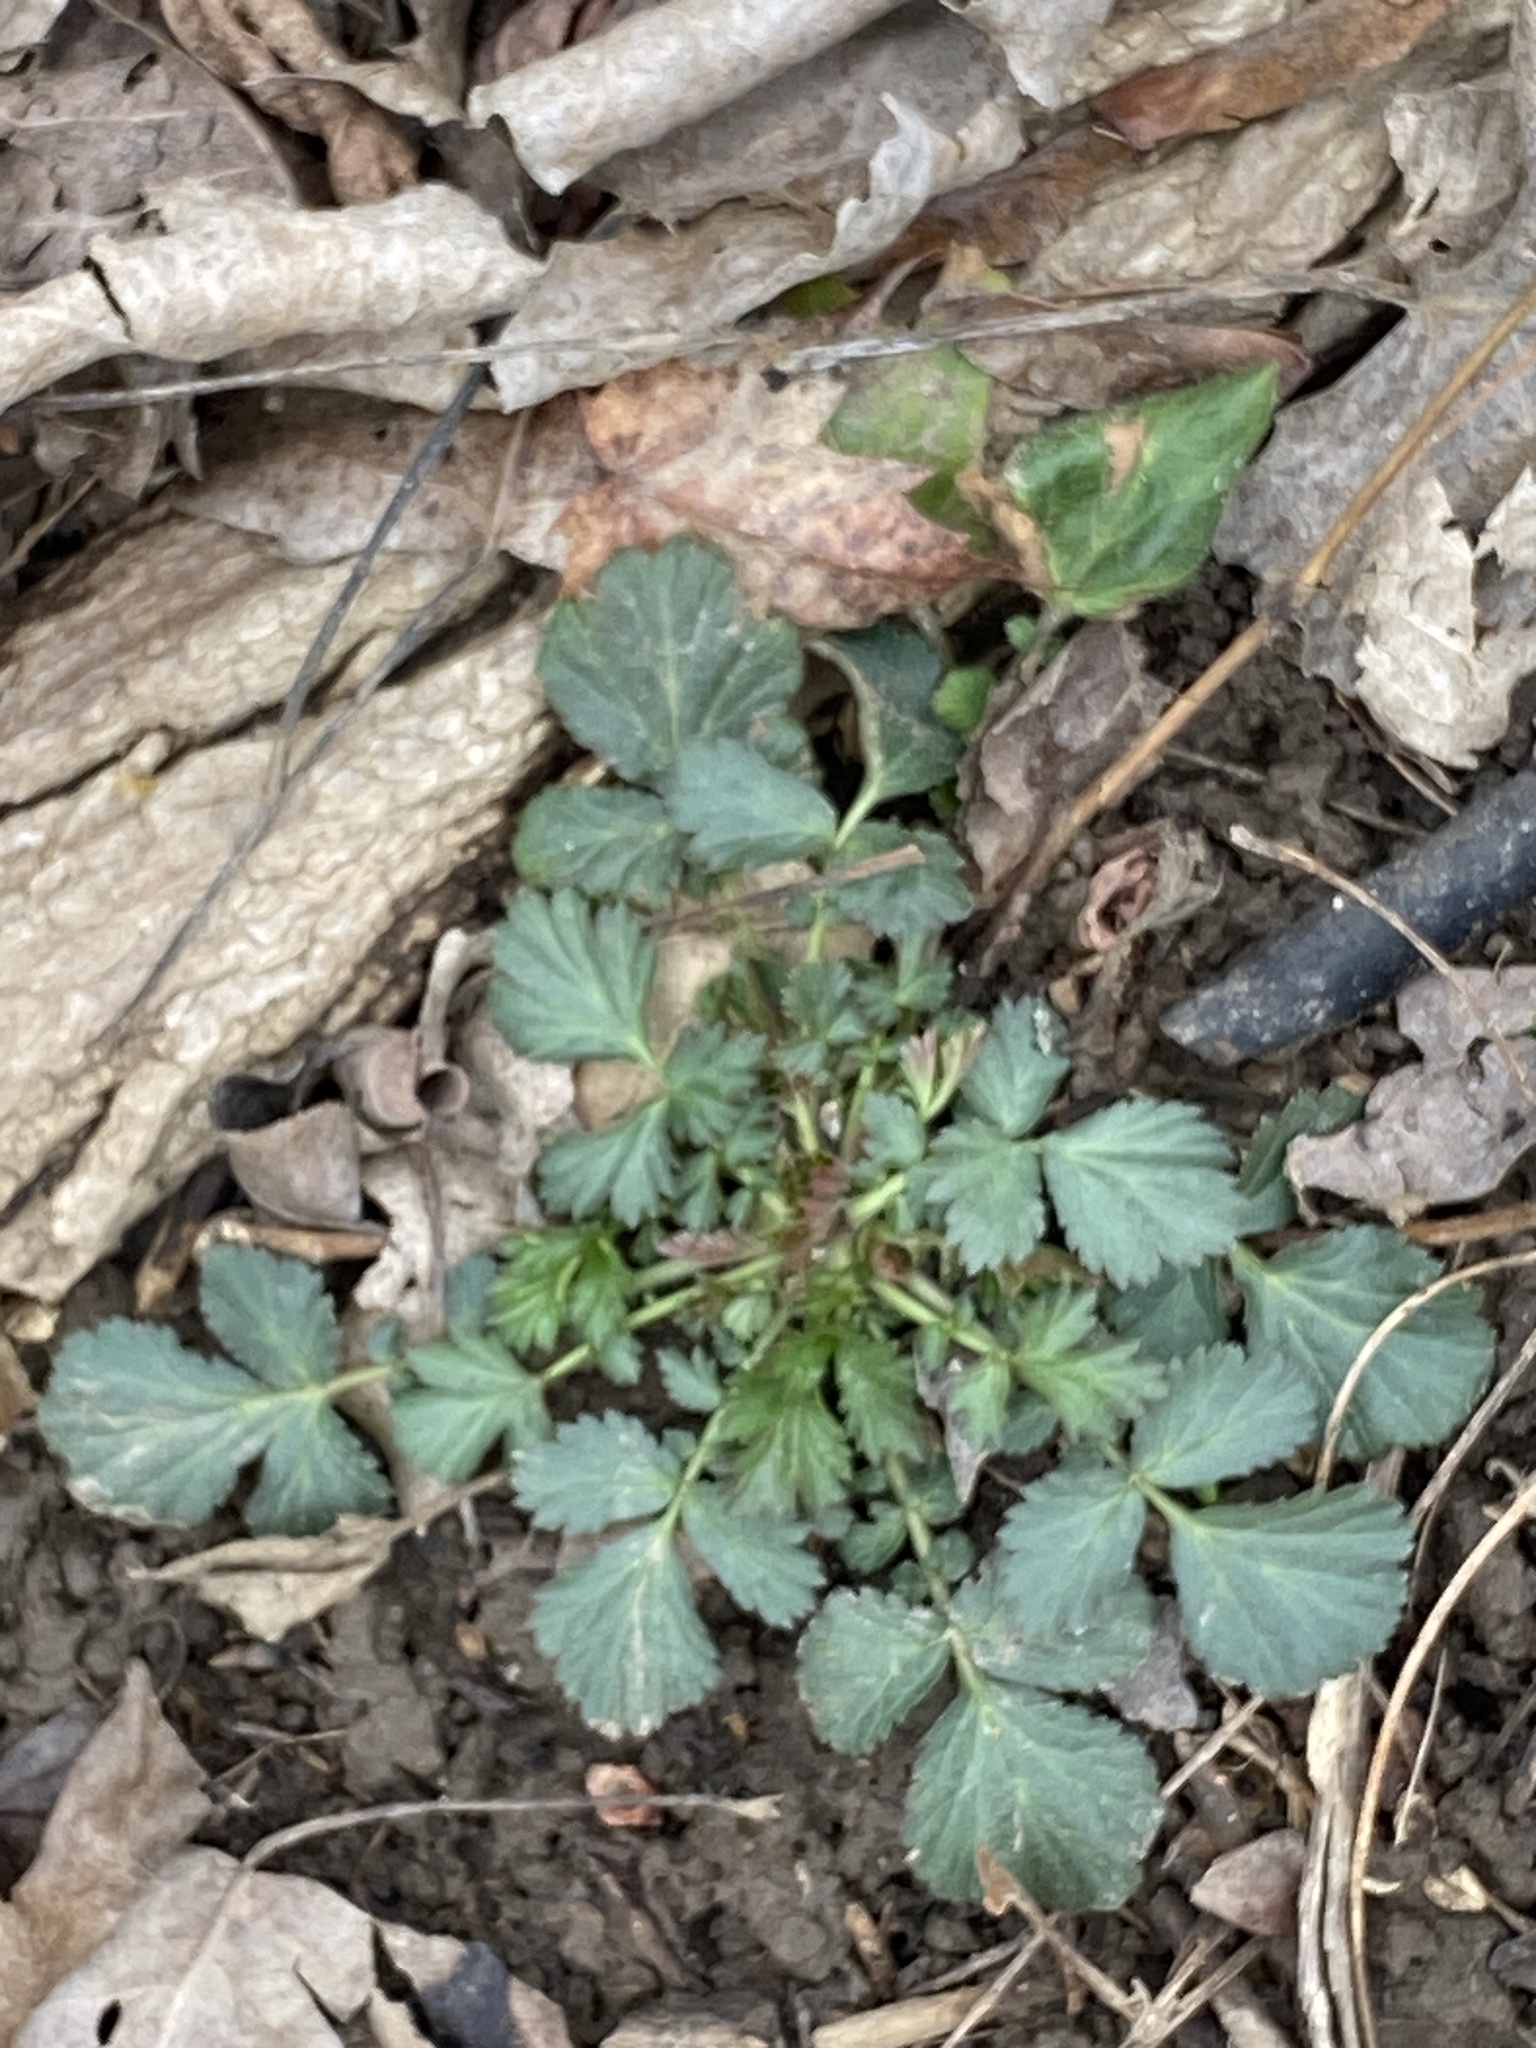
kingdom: Plantae
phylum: Tracheophyta
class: Magnoliopsida
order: Rosales
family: Rosaceae
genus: Geum
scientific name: Geum canadense
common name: White avens
